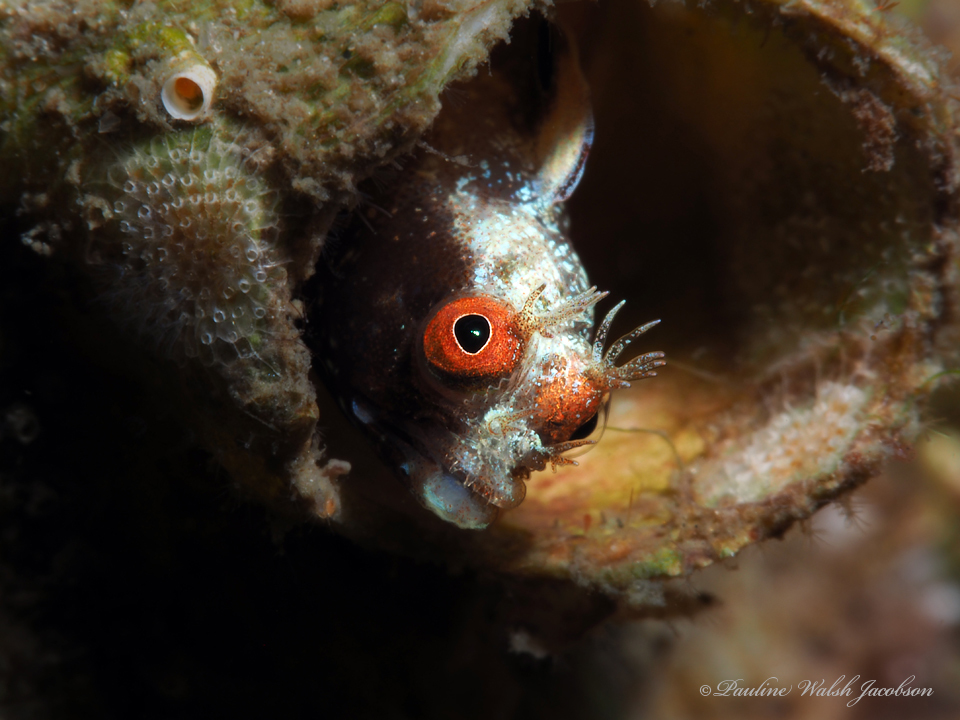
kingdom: Animalia
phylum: Chordata
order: Perciformes
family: Chaenopsidae
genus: Acanthemblemaria
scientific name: Acanthemblemaria aspera
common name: Roughhead blenny
